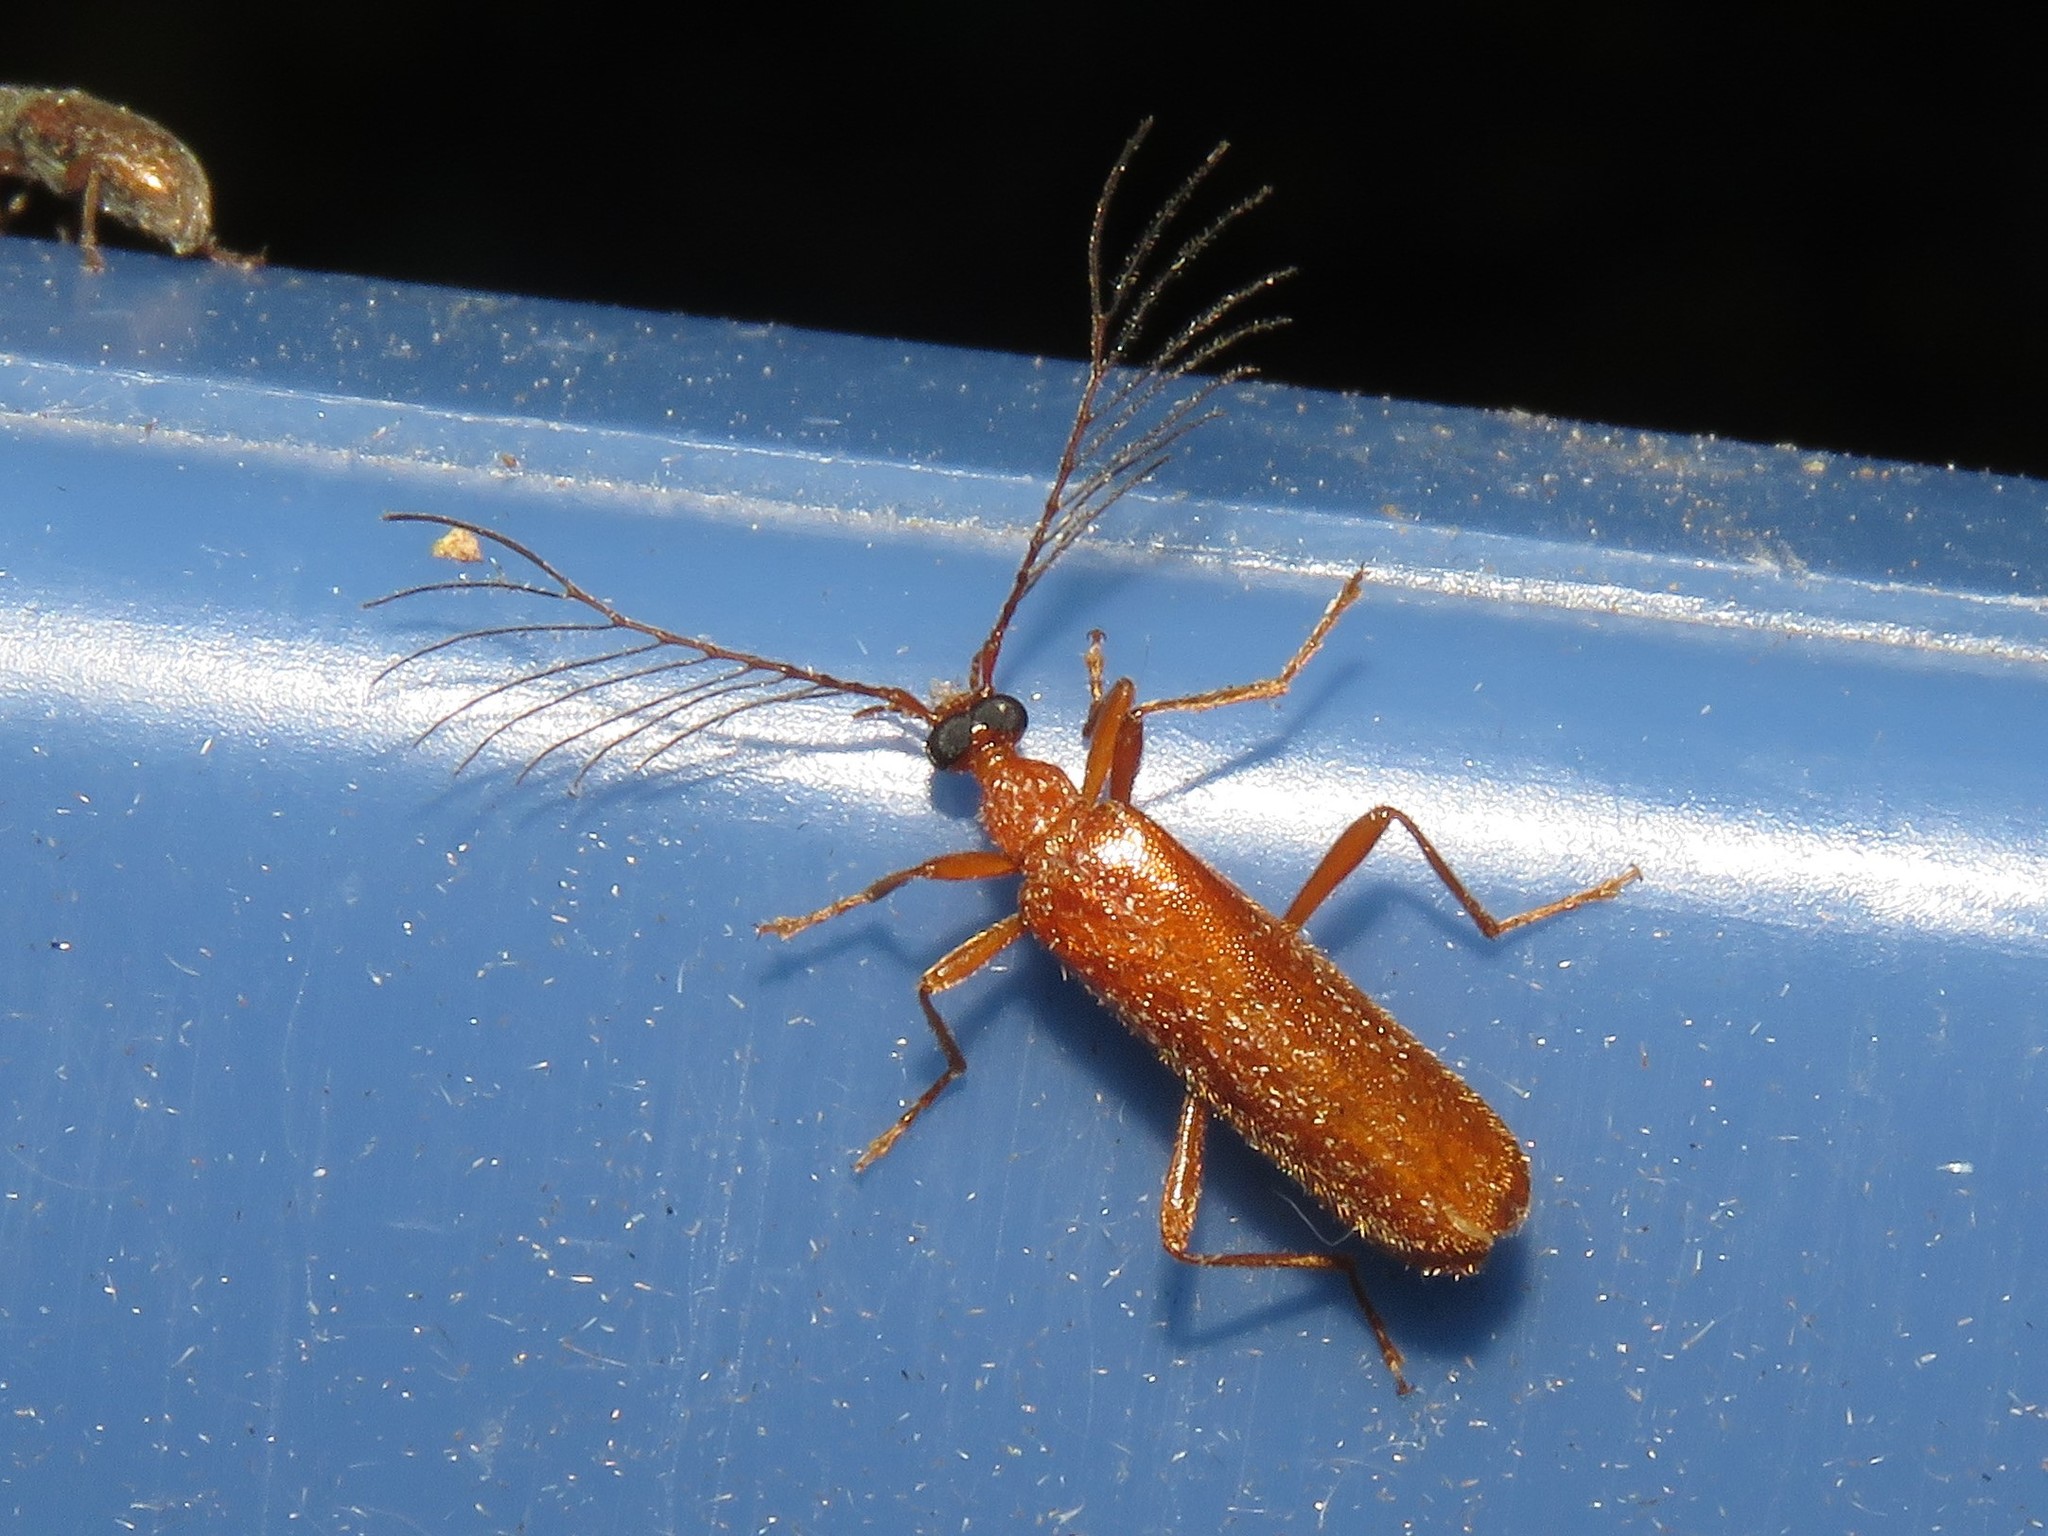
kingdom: Animalia
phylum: Arthropoda
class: Insecta
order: Coleoptera
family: Pyrochroidae
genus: Dendroides
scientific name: Dendroides concolor
